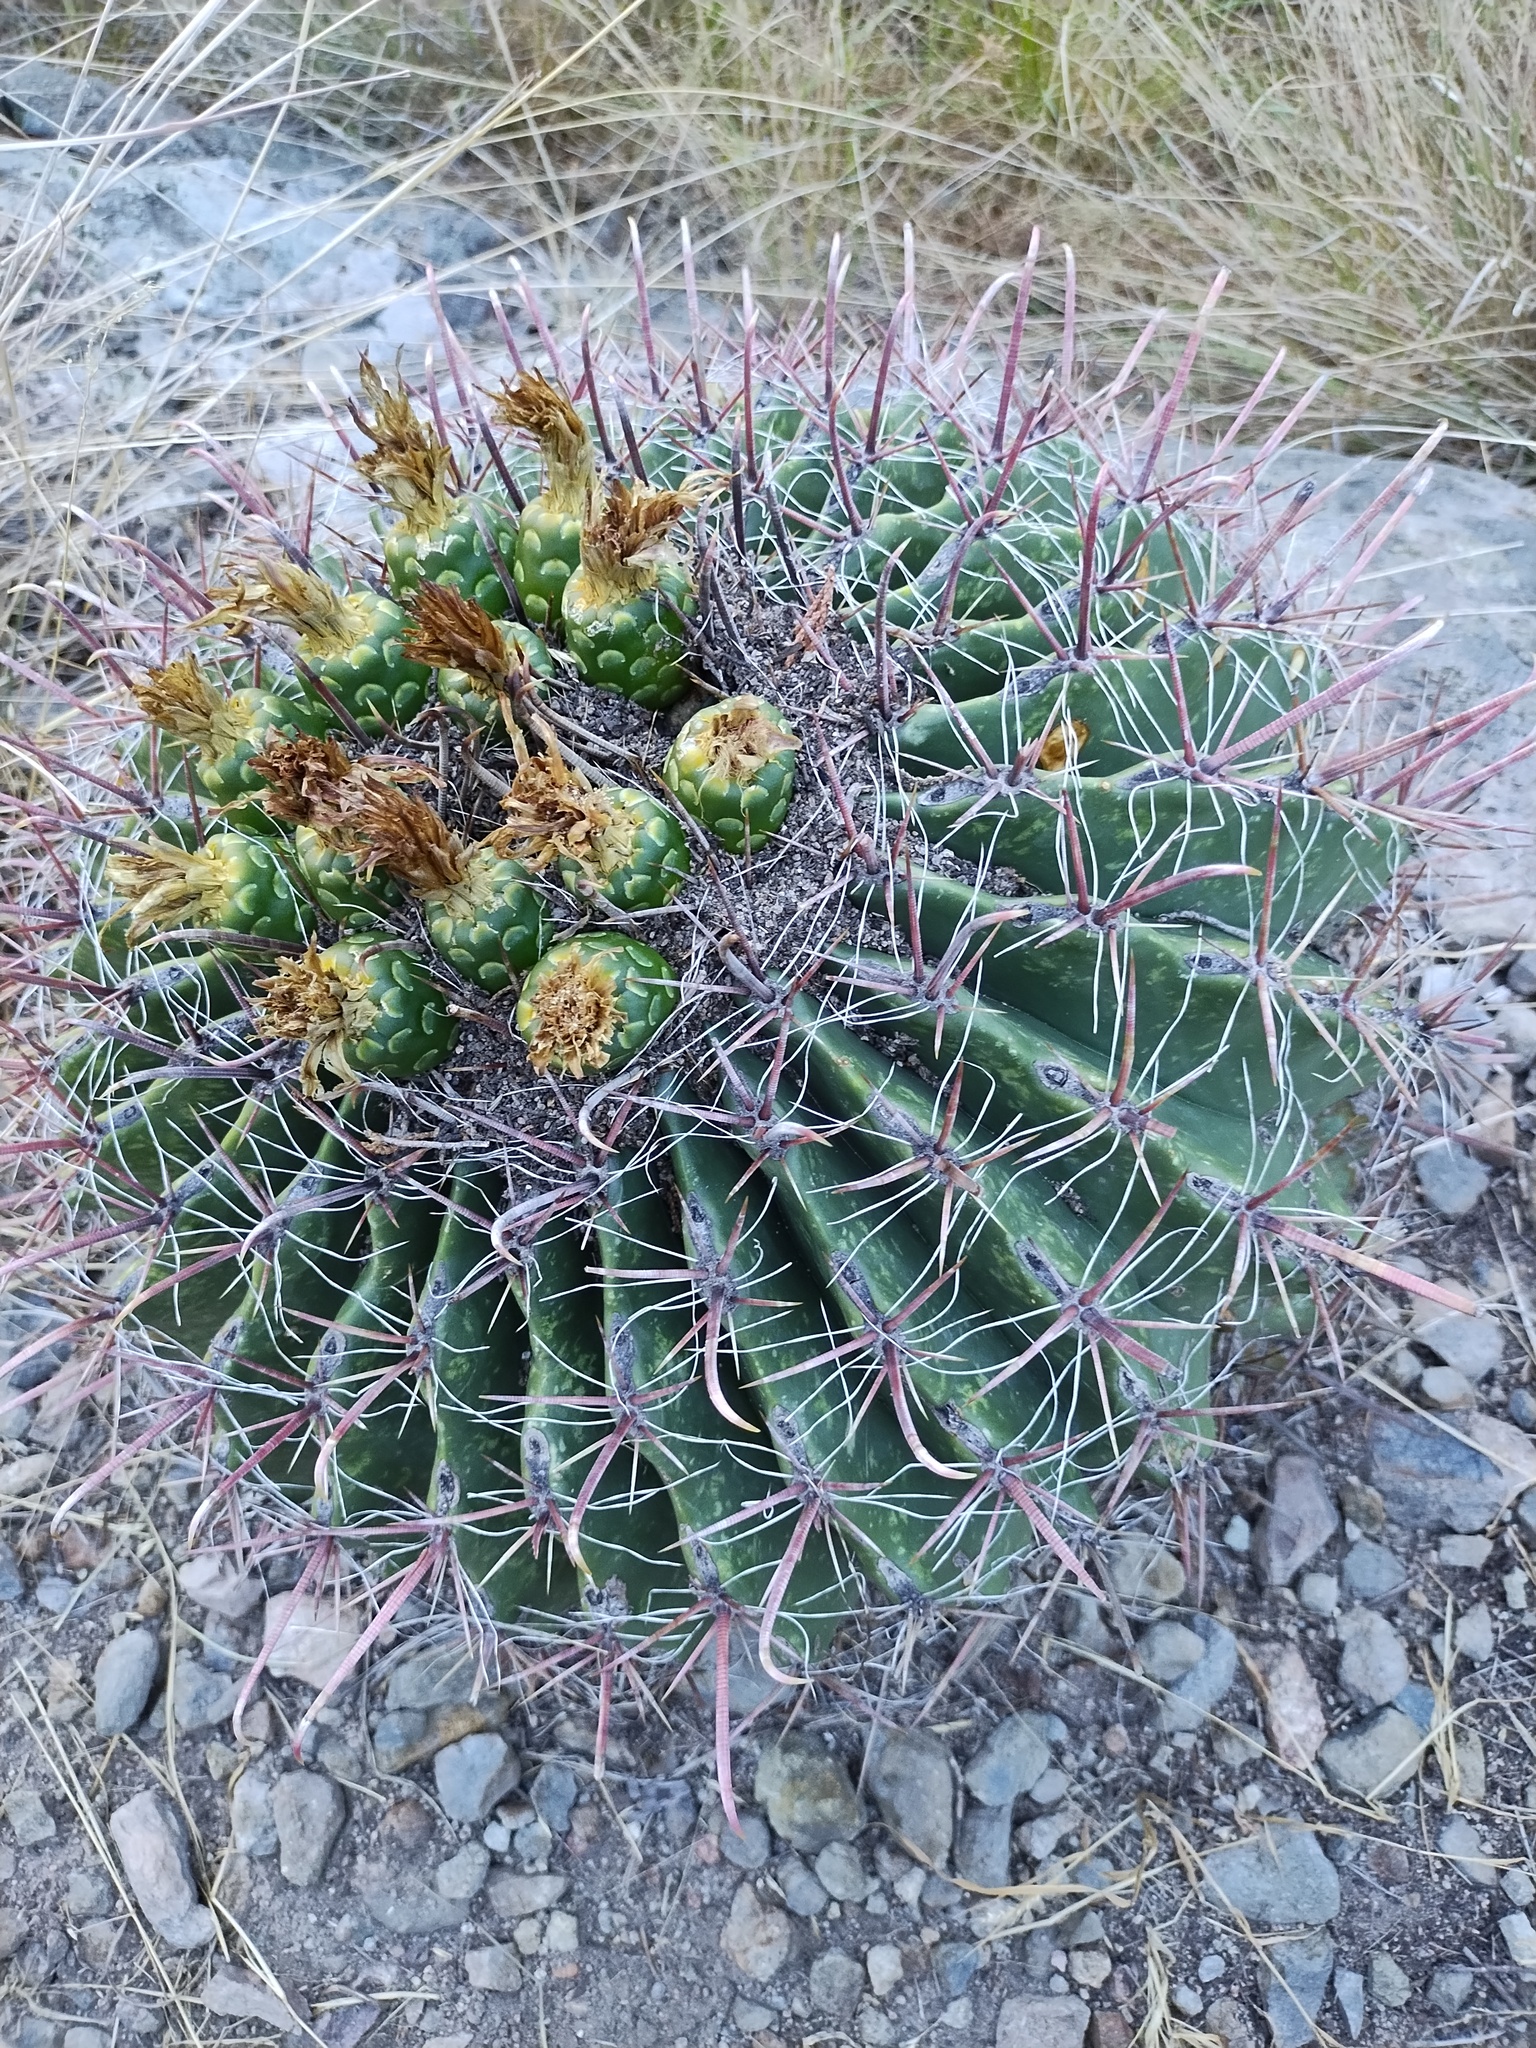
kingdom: Plantae
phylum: Tracheophyta
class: Magnoliopsida
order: Caryophyllales
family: Cactaceae
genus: Ferocactus
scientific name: Ferocactus wislizeni
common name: Candy barrel cactus
